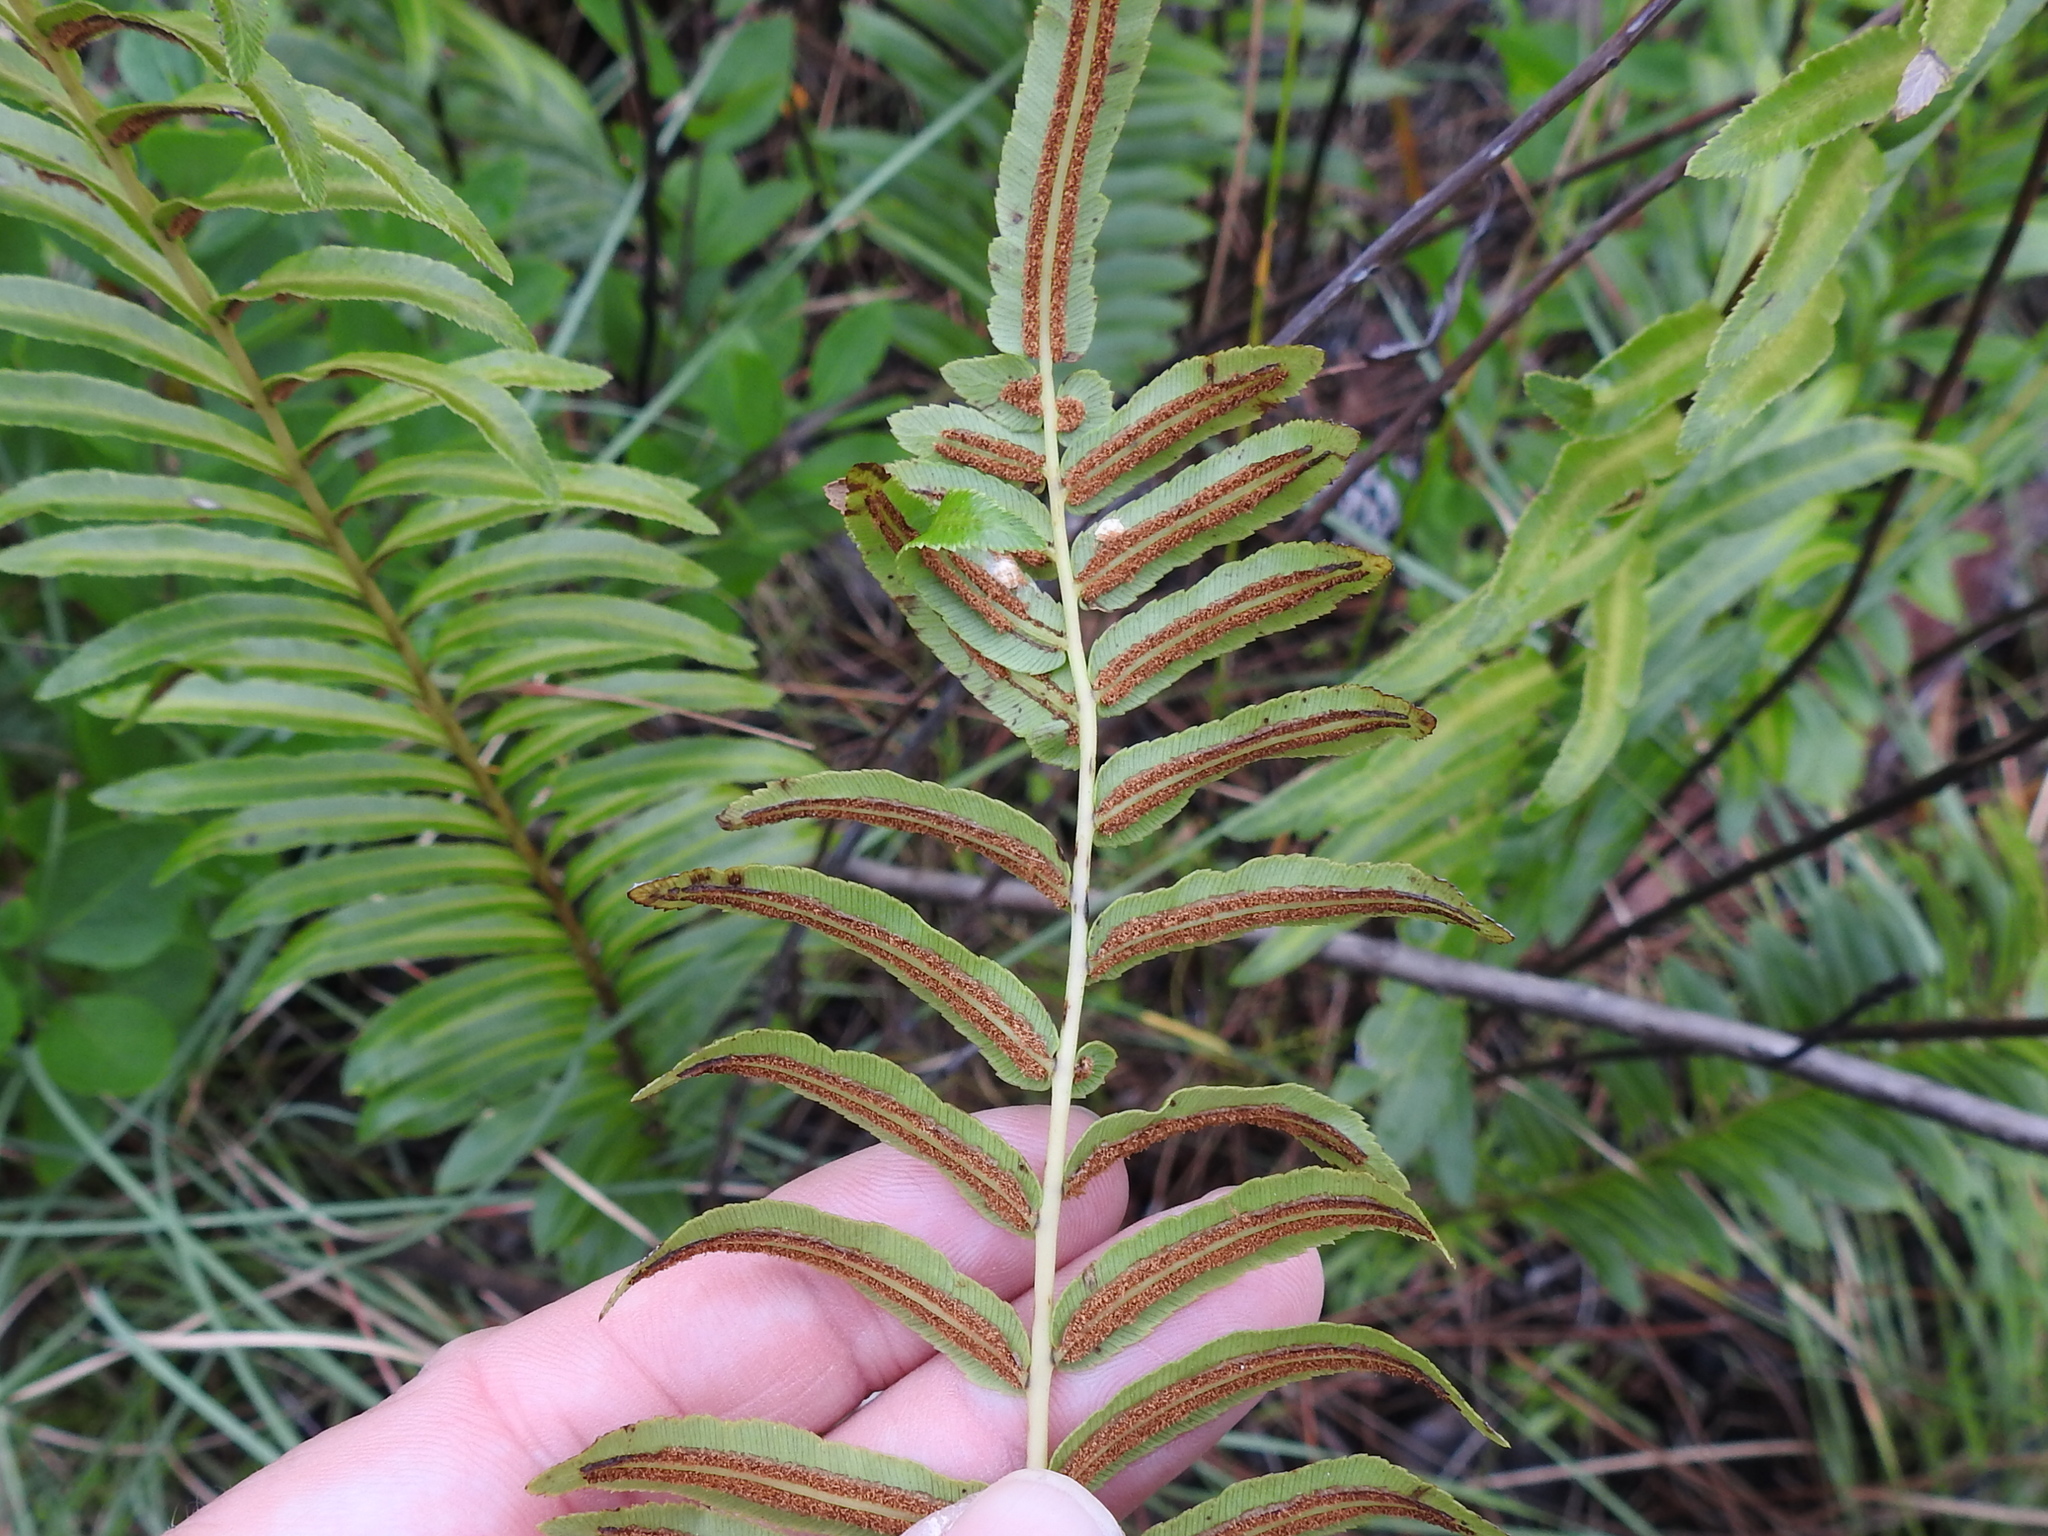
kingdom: Plantae
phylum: Tracheophyta
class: Polypodiopsida
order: Polypodiales
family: Blechnaceae
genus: Telmatoblechnum
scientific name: Telmatoblechnum serrulatum
